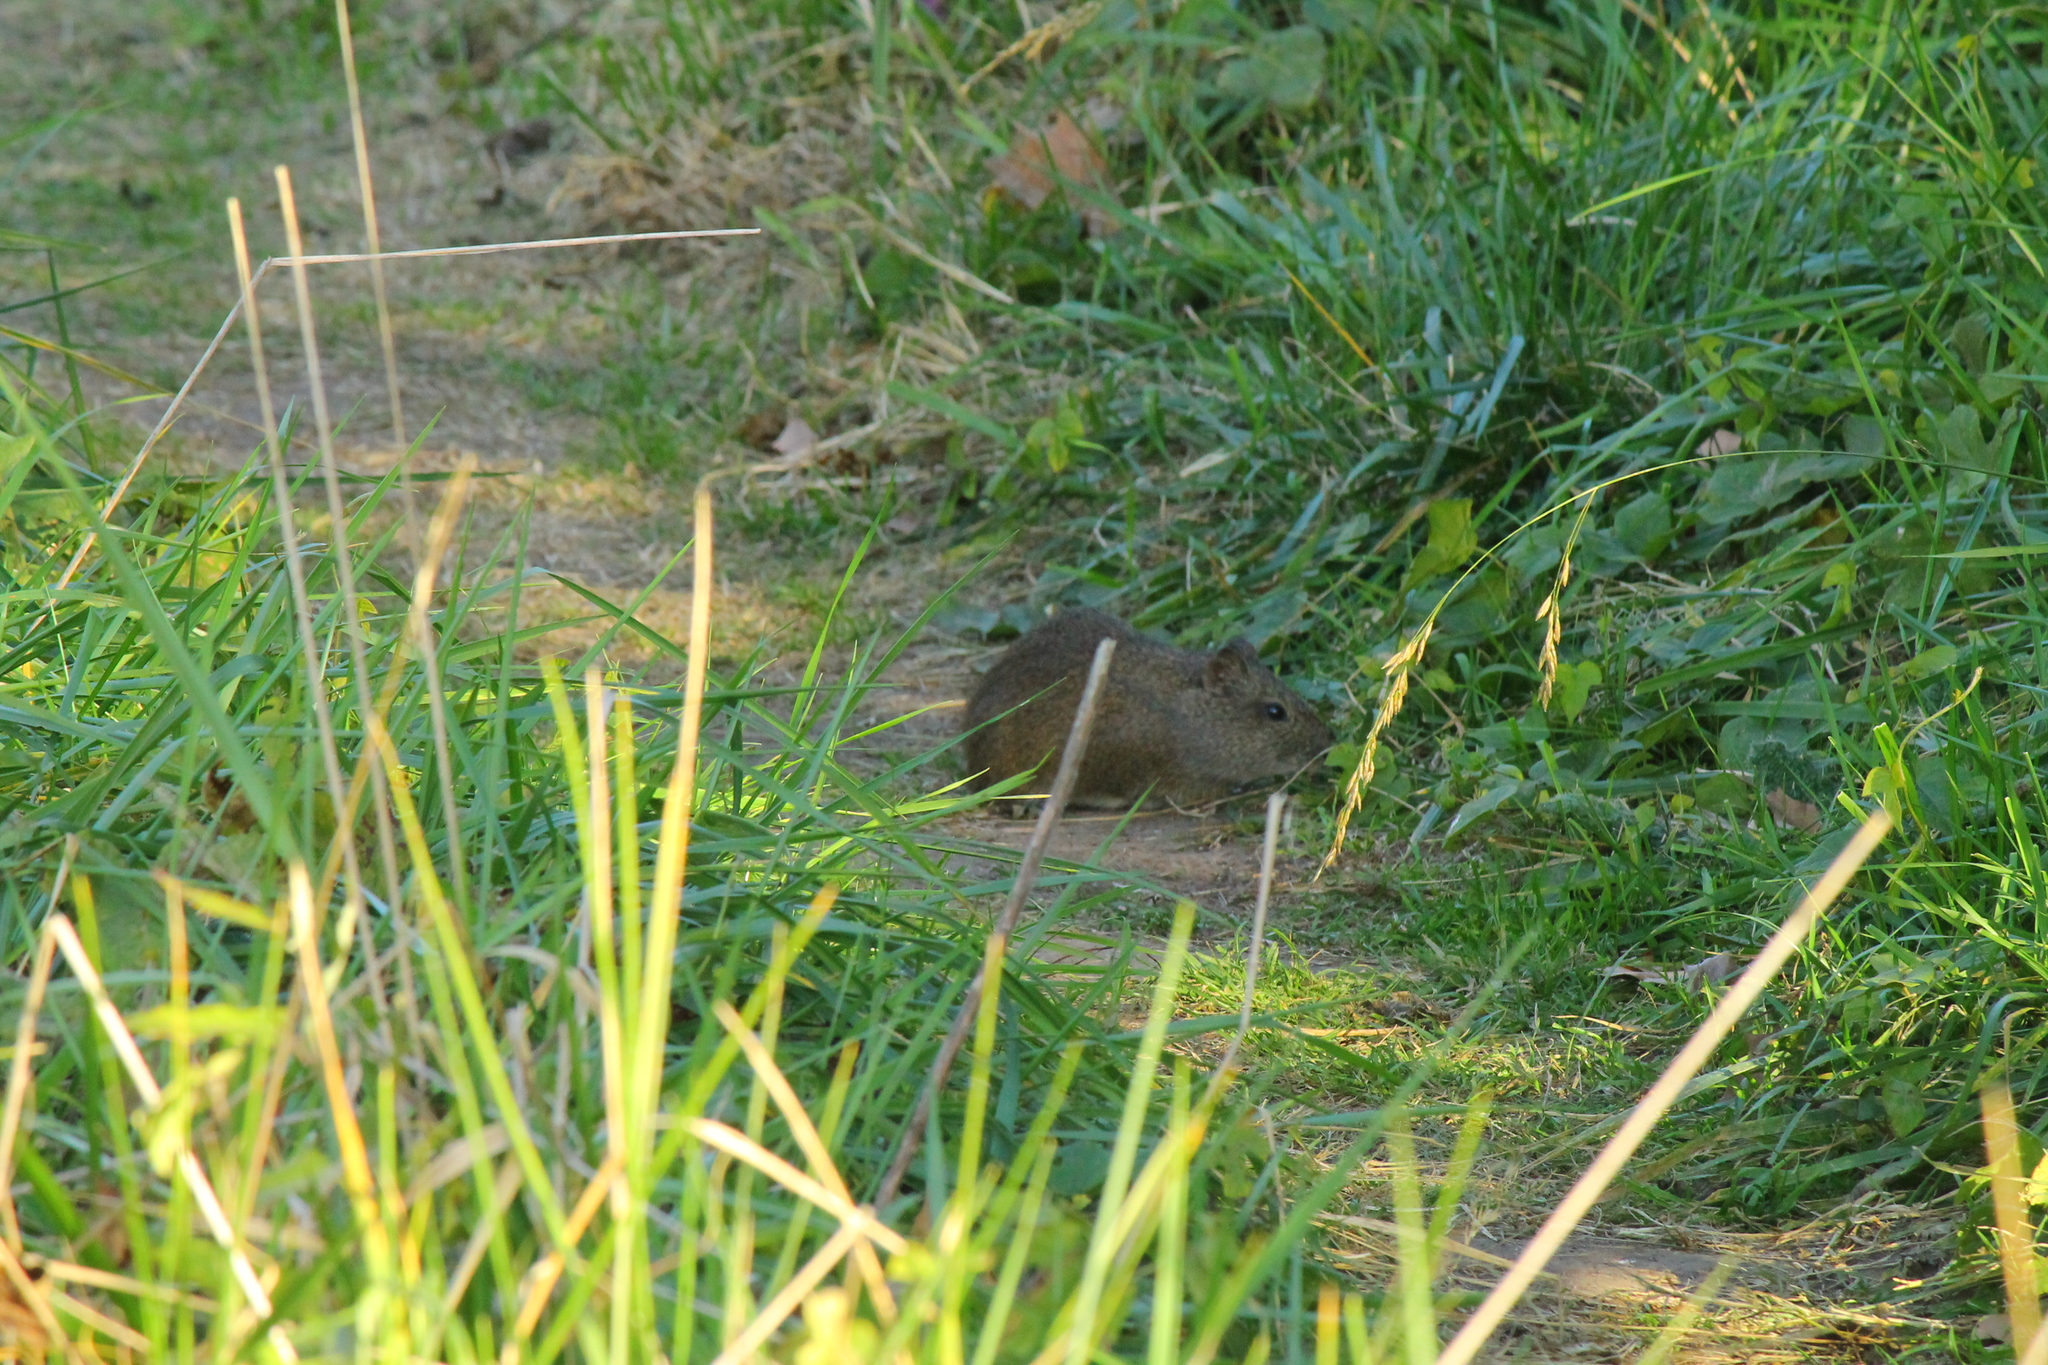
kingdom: Animalia
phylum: Chordata
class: Mammalia
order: Rodentia
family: Caviidae
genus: Cavia
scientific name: Cavia aperea
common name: Brazilian guinea pig
